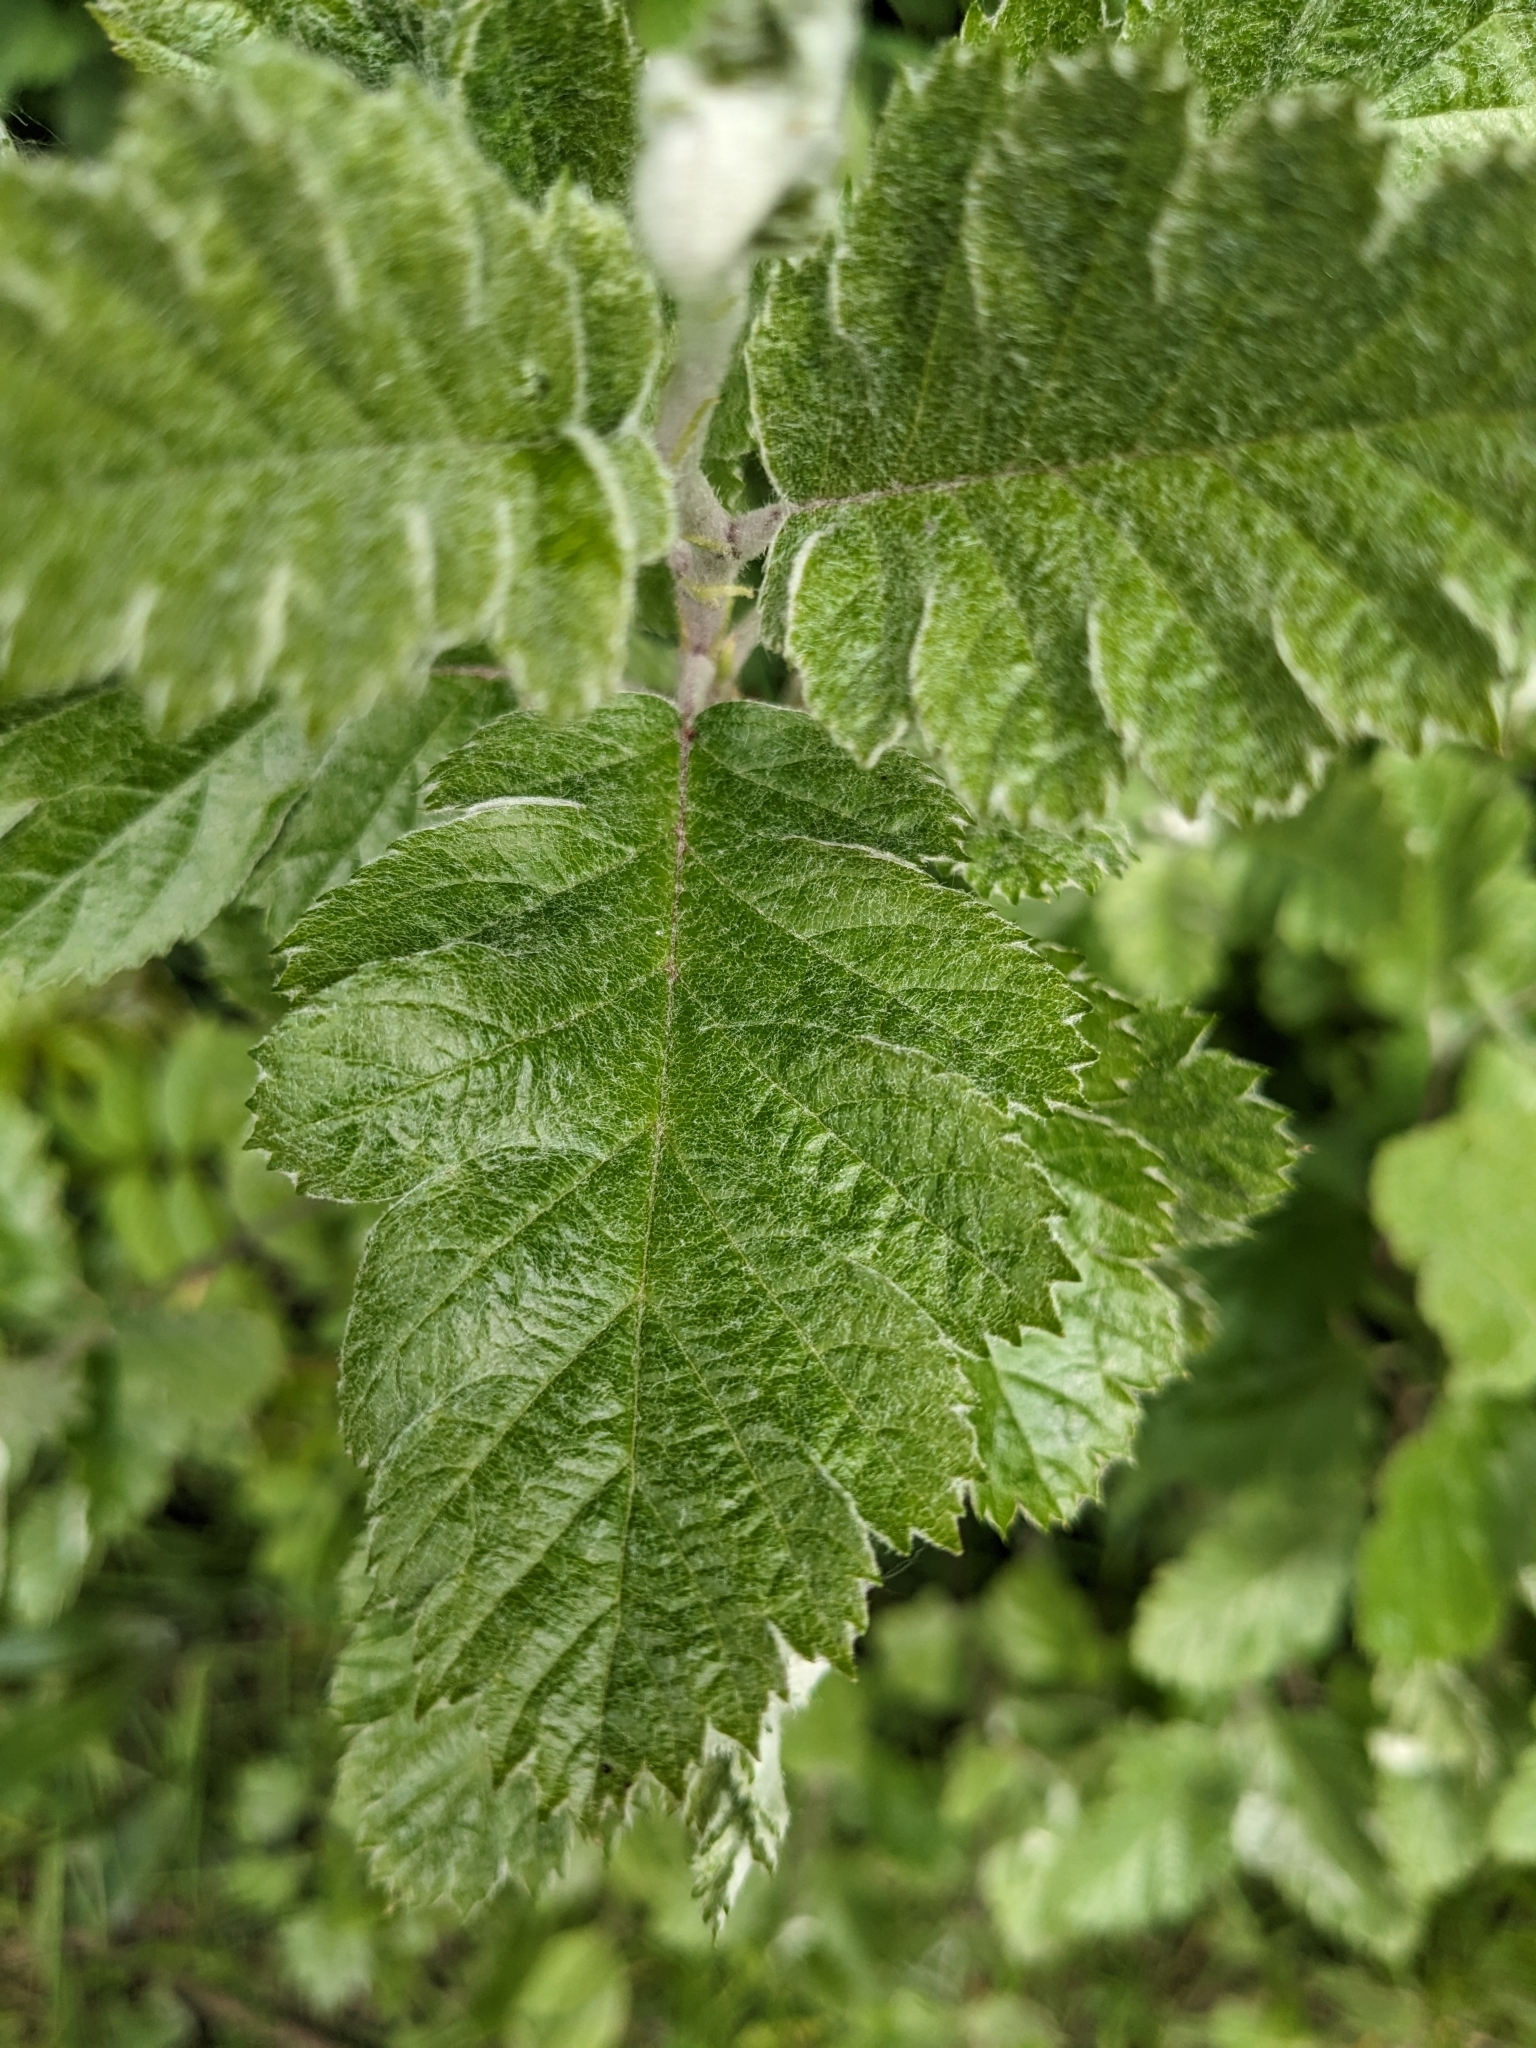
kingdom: Plantae
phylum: Tracheophyta
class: Magnoliopsida
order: Rosales
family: Rosaceae
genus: Scandosorbus
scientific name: Scandosorbus intermedia
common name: Swedish whitebeam
